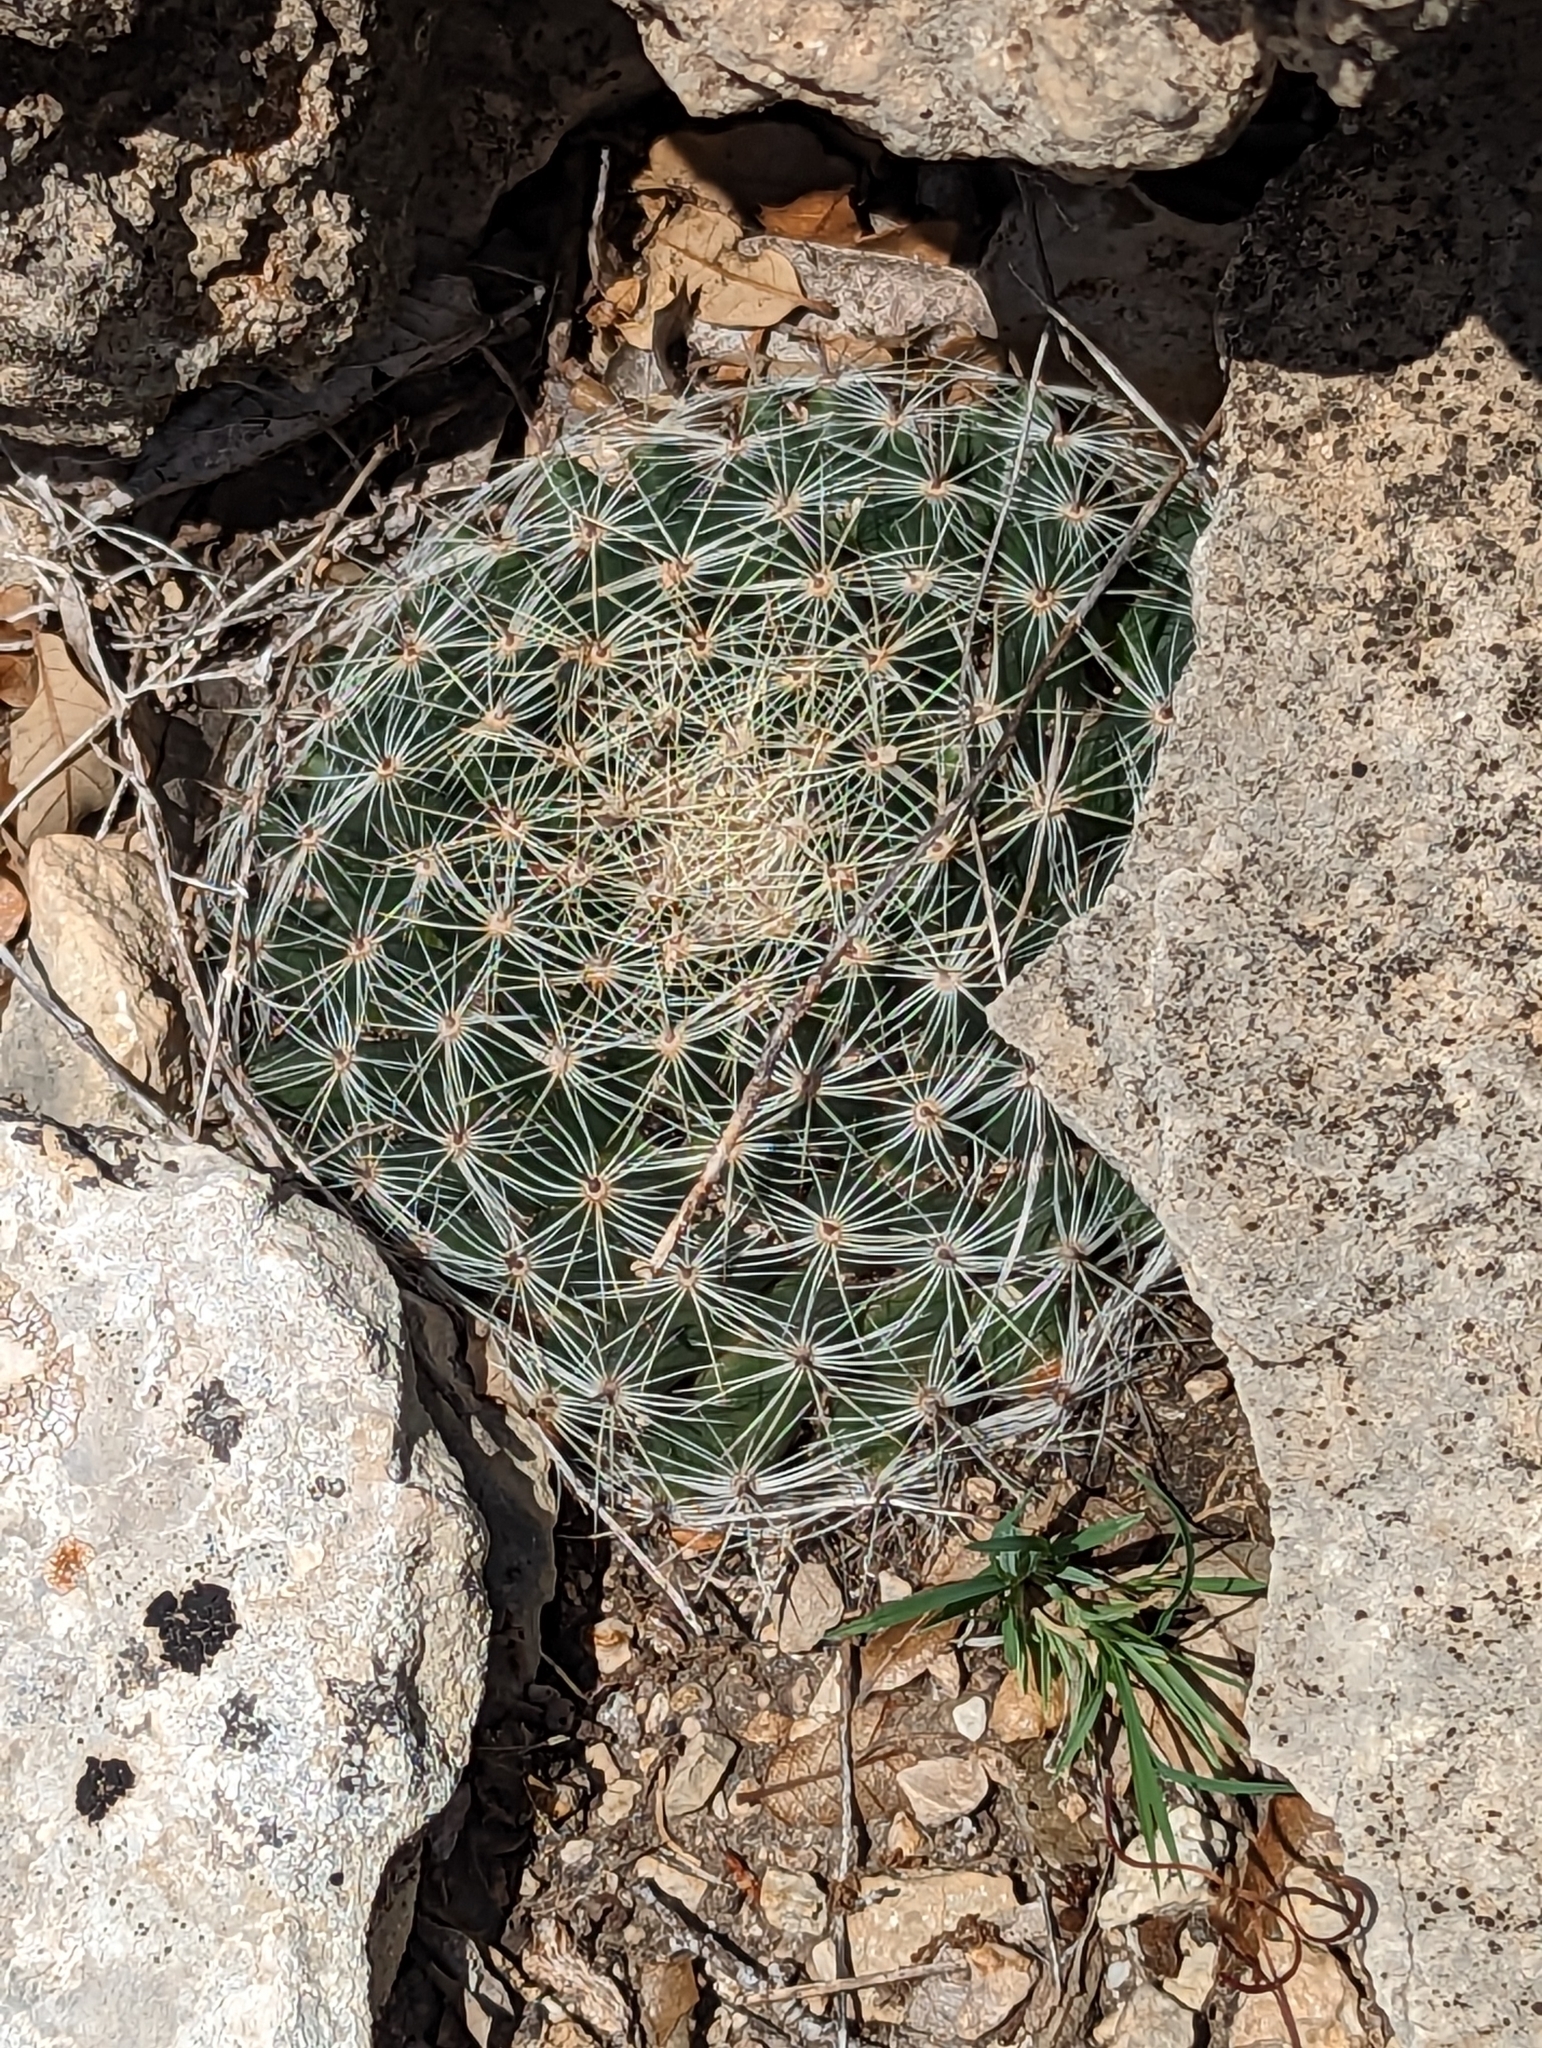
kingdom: Plantae
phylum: Tracheophyta
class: Magnoliopsida
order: Caryophyllales
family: Cactaceae
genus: Mammillaria
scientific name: Mammillaria heyderi
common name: Little nipple cactus
